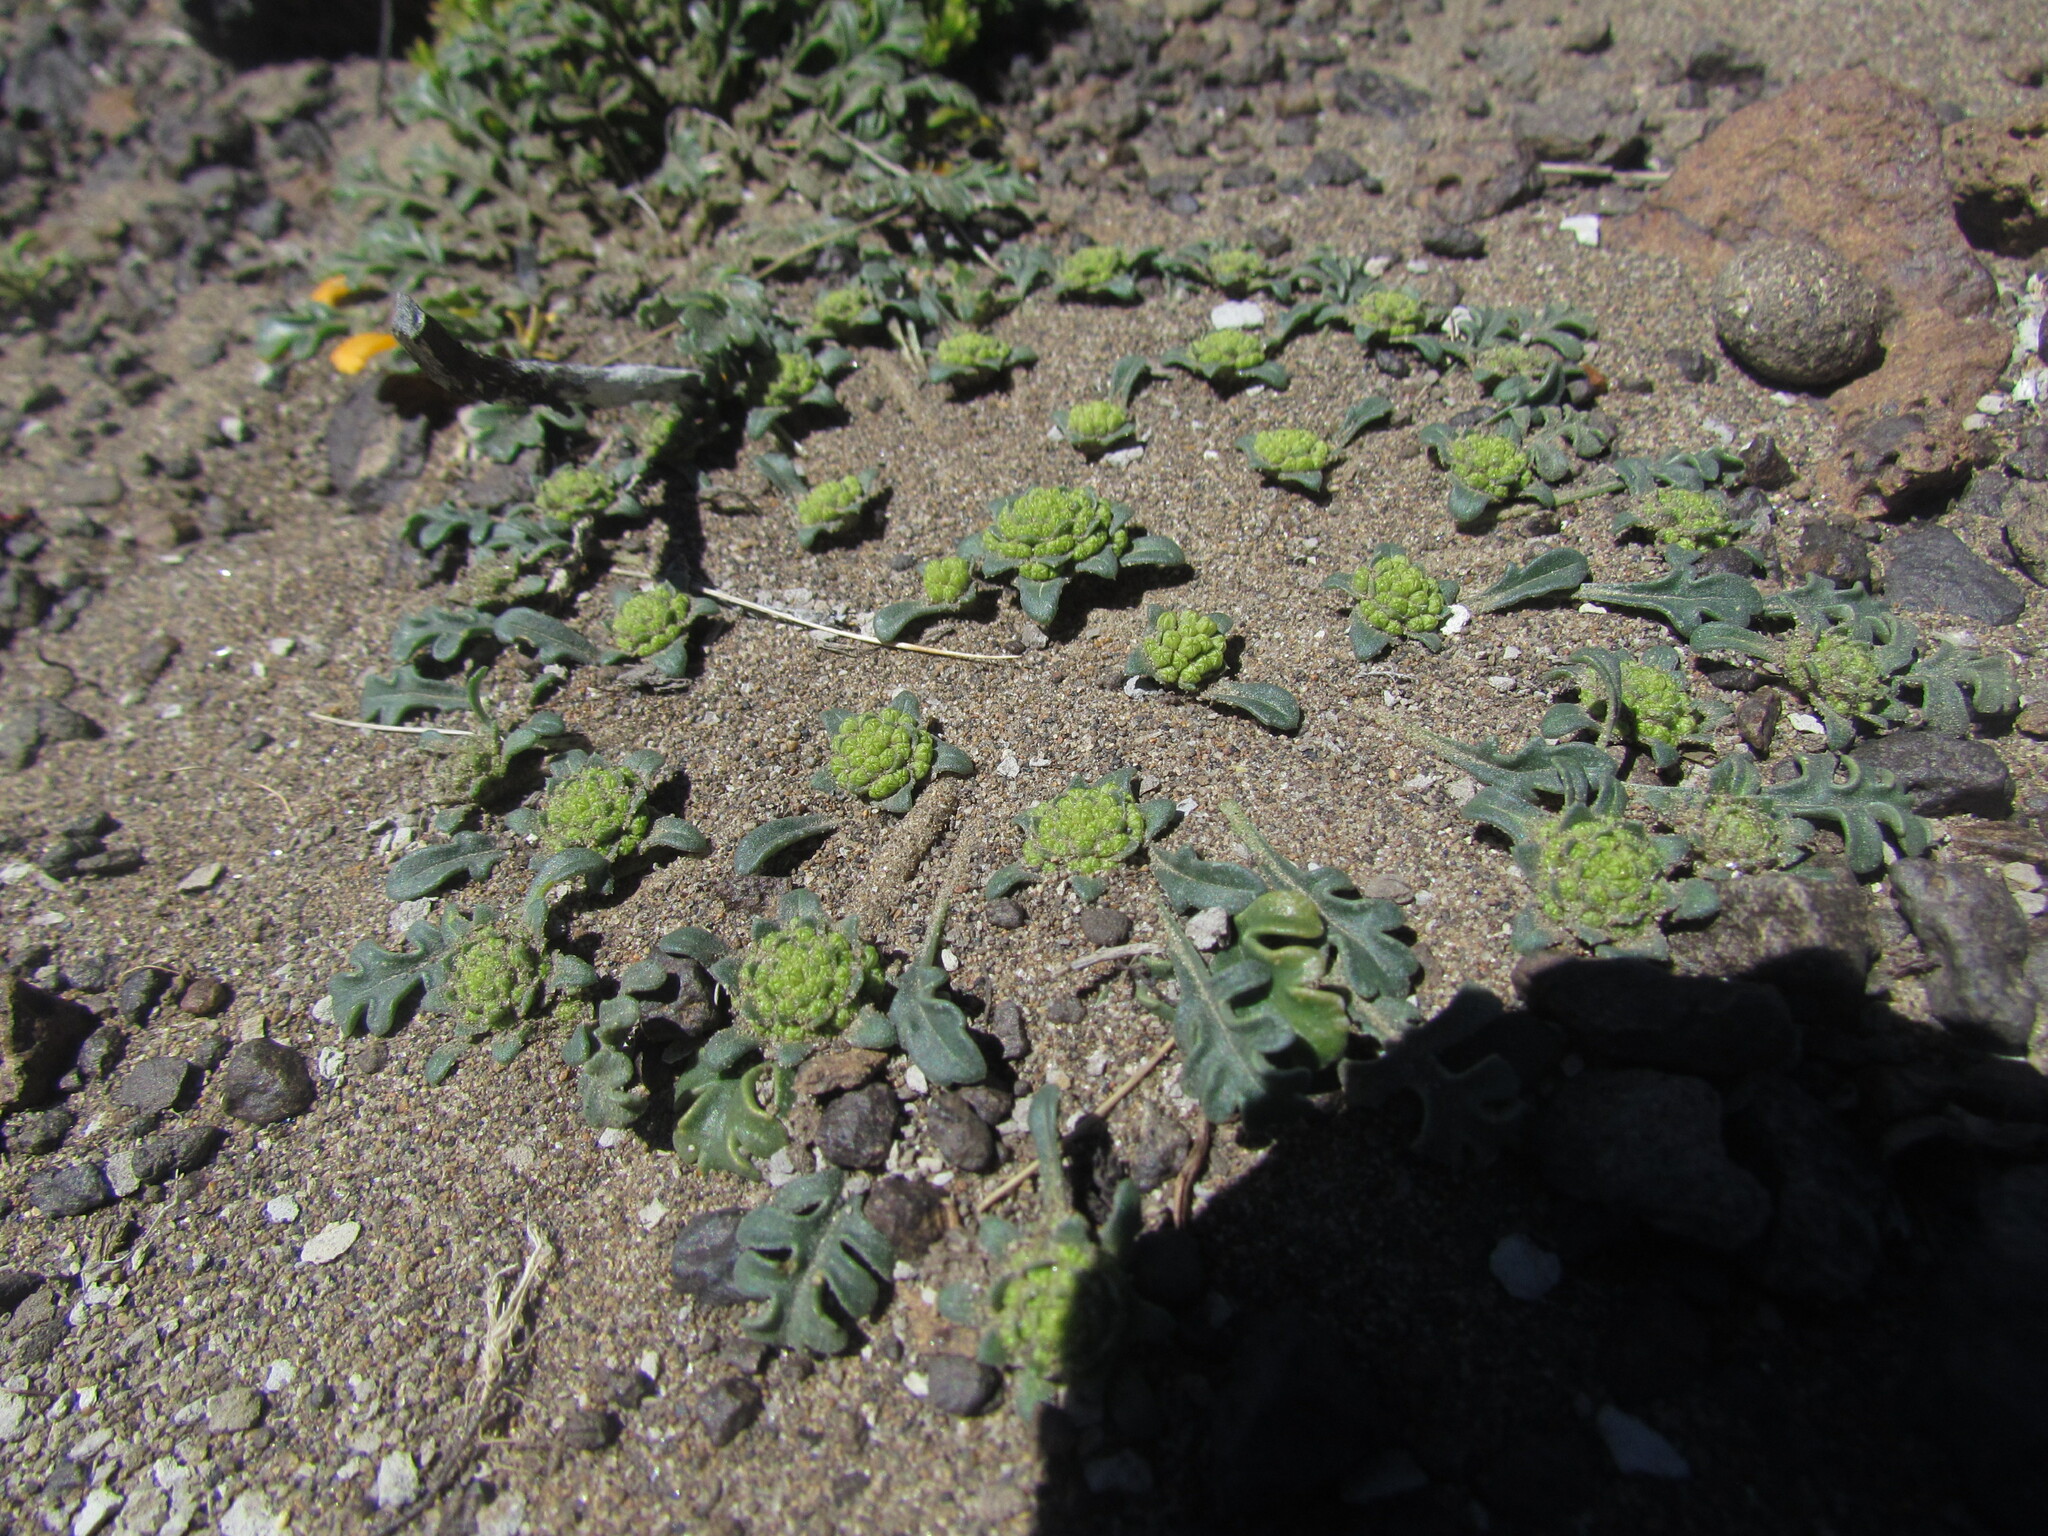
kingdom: Plantae
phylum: Tracheophyta
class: Magnoliopsida
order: Asterales
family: Calyceraceae
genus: Gamocarpha
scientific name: Gamocarpha selliana
